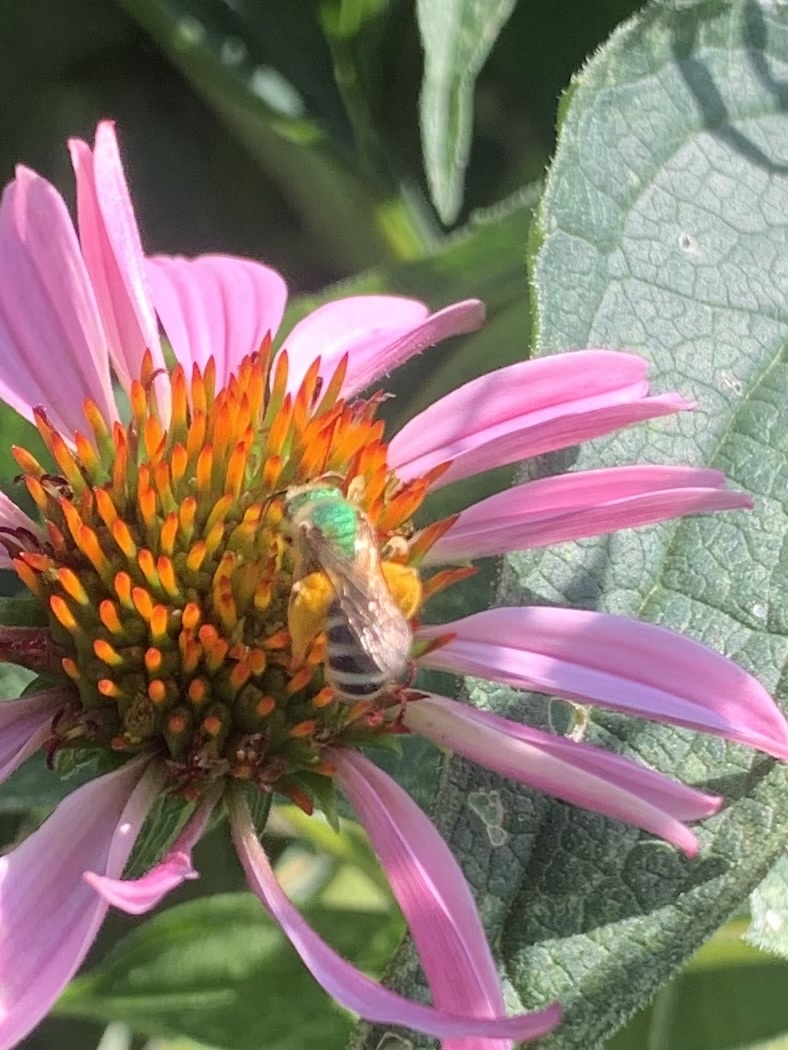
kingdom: Animalia
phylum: Arthropoda
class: Insecta
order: Hymenoptera
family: Halictidae
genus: Agapostemon
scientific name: Agapostemon virescens
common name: Bicolored striped sweat bee
